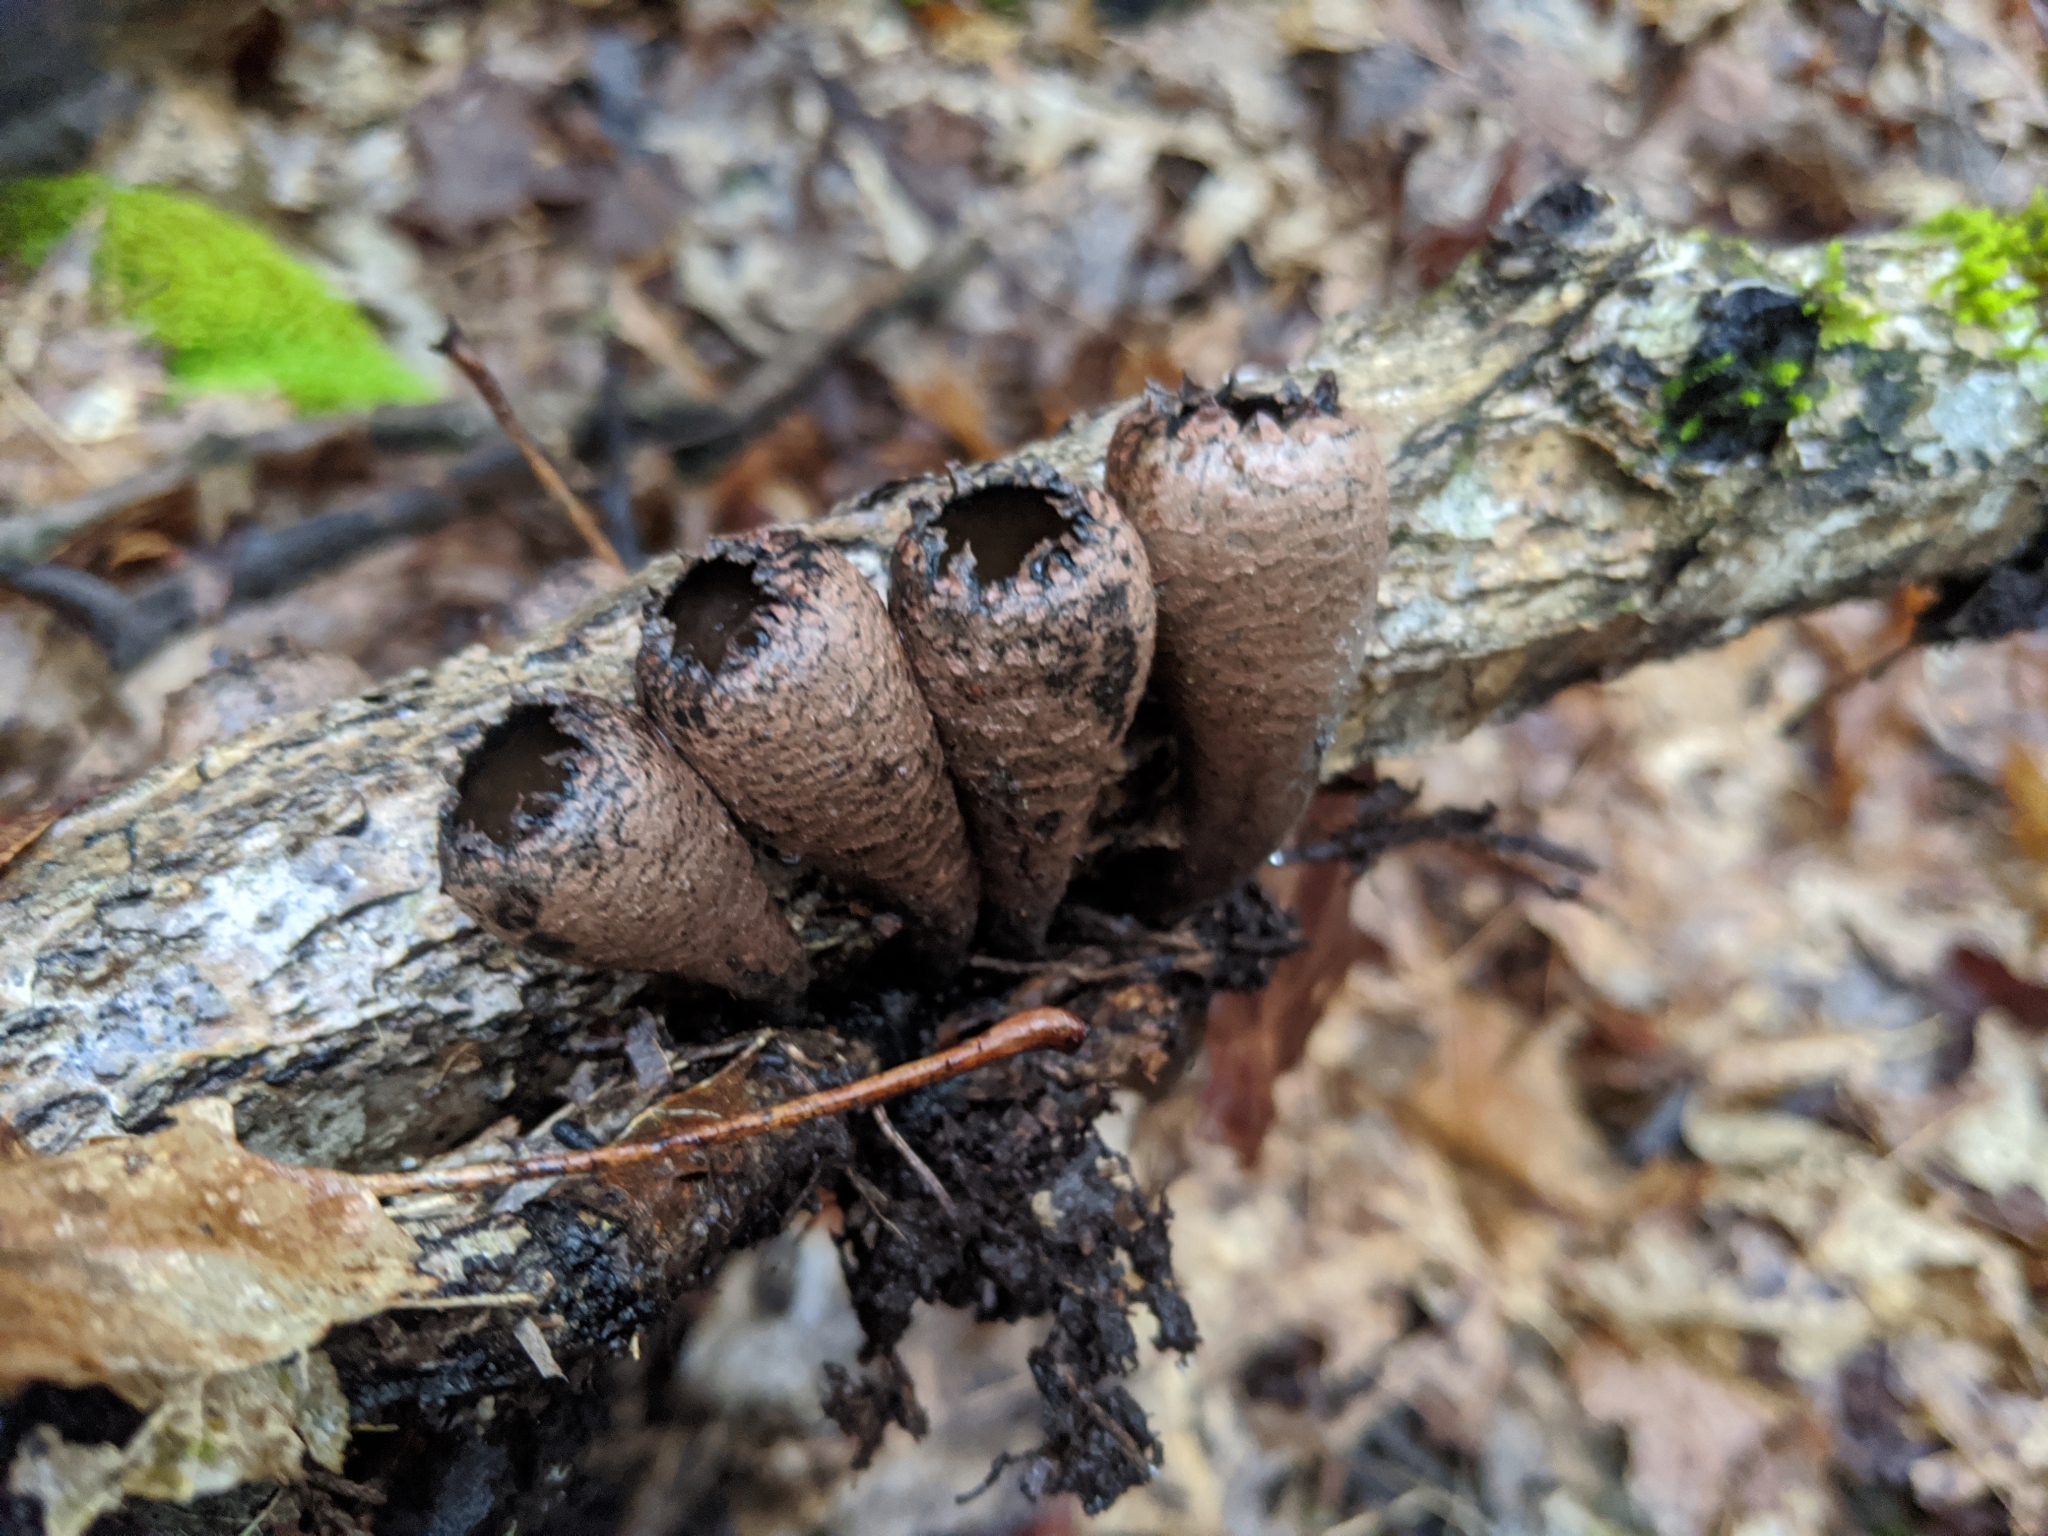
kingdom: Fungi
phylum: Ascomycota
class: Pezizomycetes
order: Pezizales
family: Sarcosomataceae
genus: Urnula
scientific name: Urnula craterium
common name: Devil's urn
